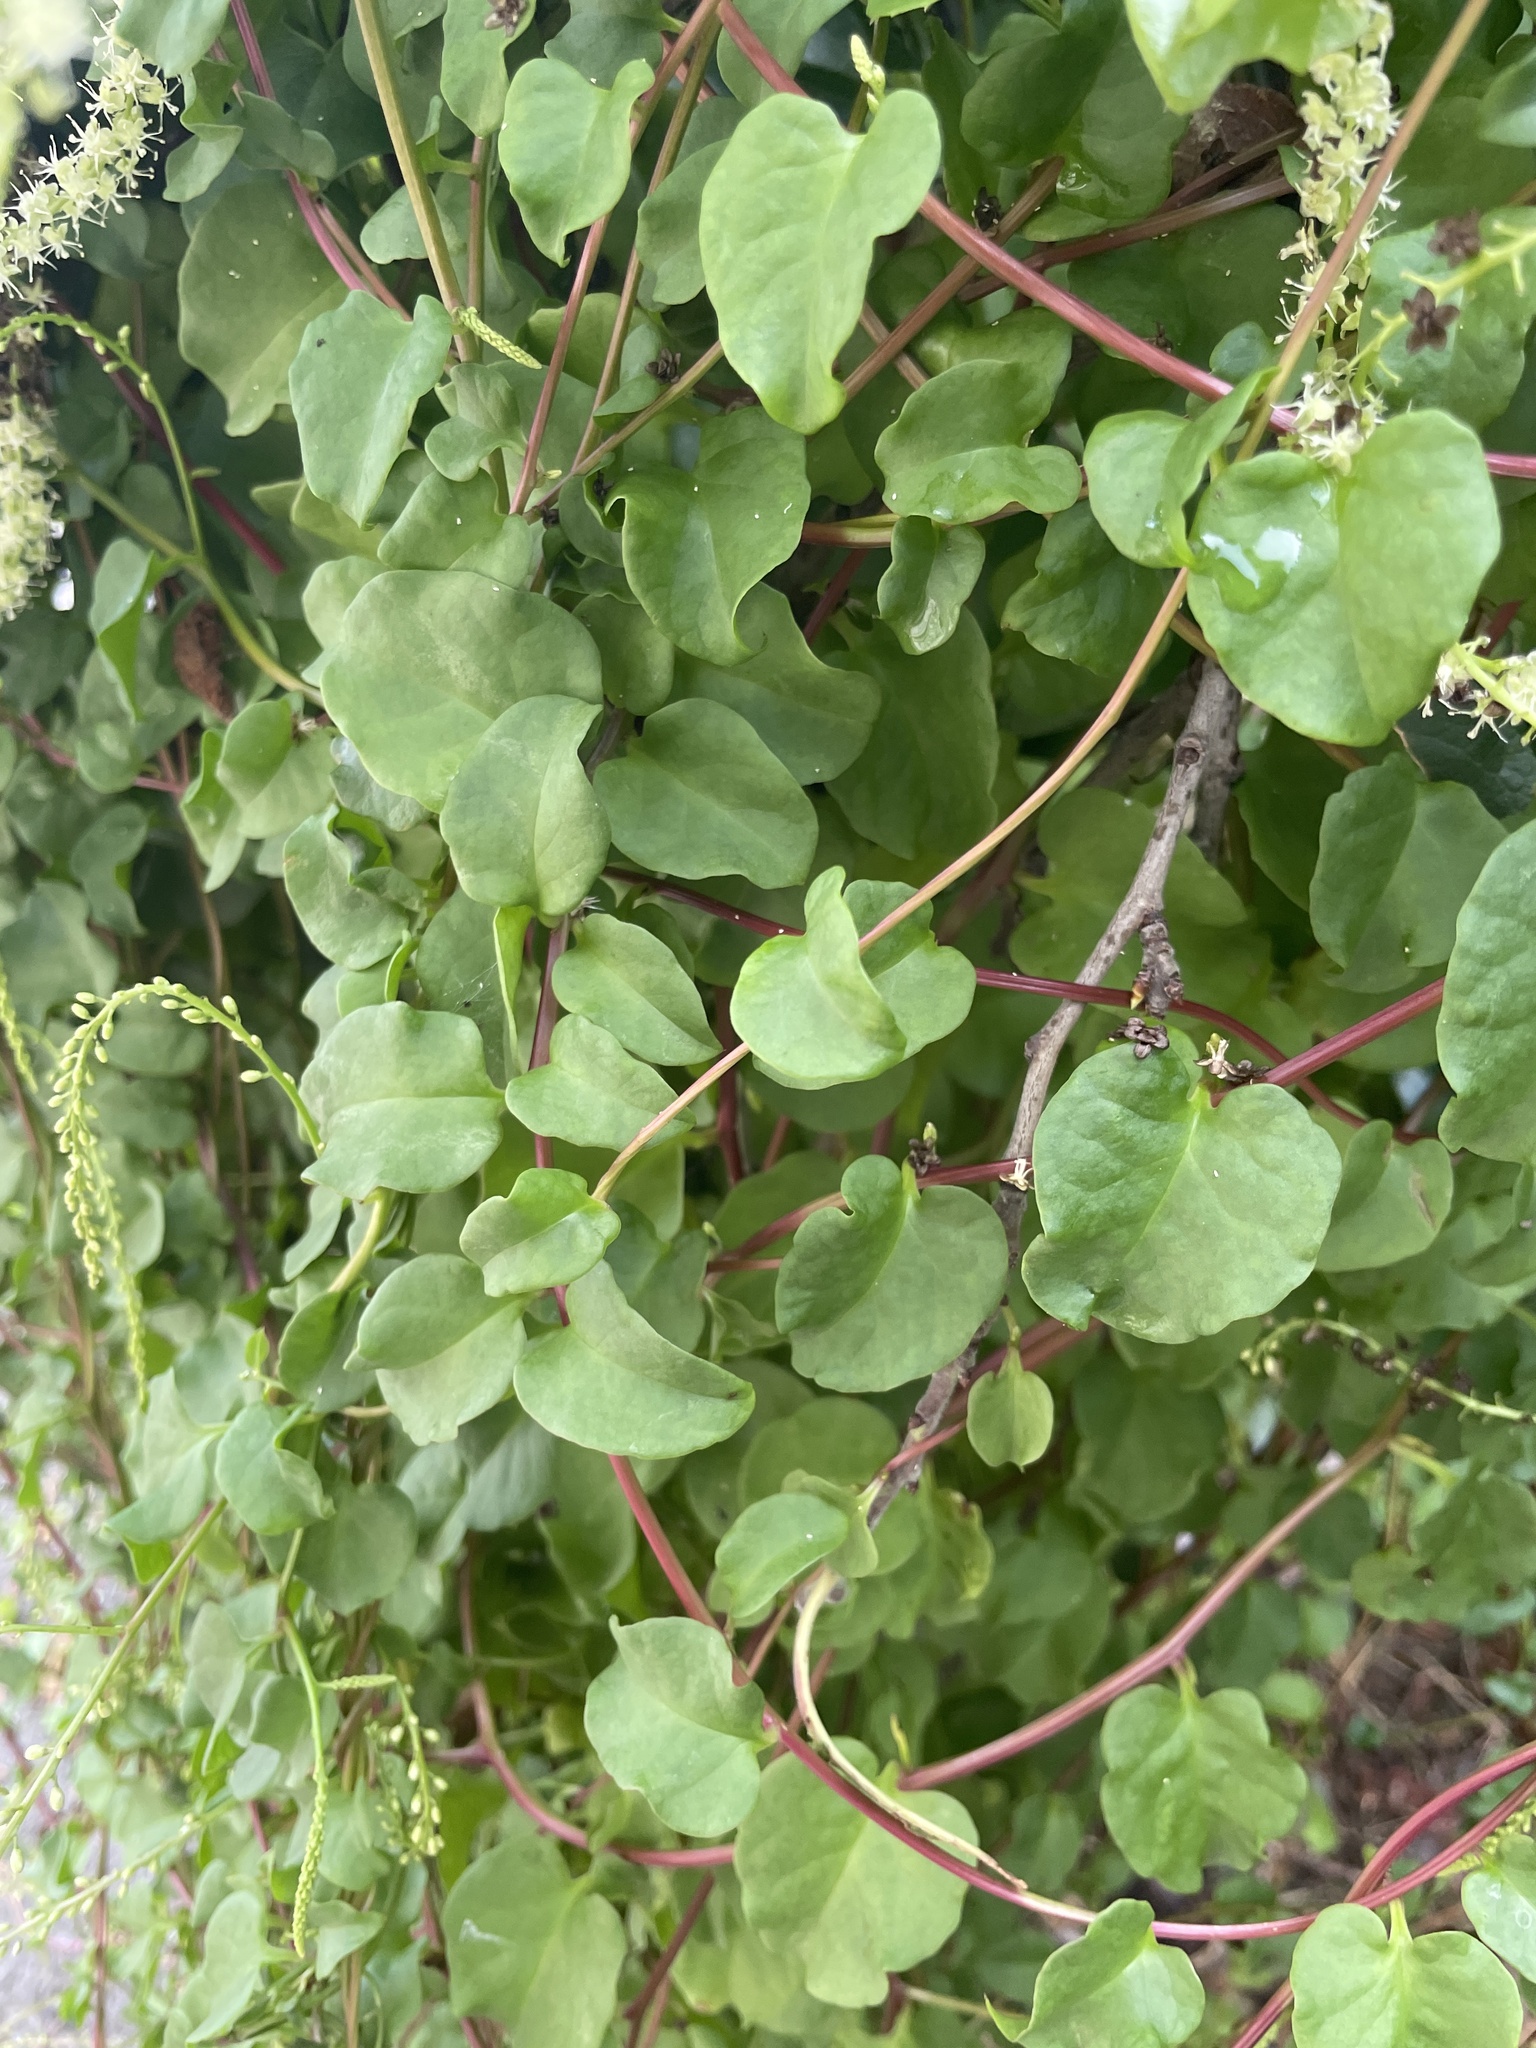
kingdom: Plantae
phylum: Tracheophyta
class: Magnoliopsida
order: Caryophyllales
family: Basellaceae
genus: Anredera
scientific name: Anredera cordifolia
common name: Heartleaf madeiravine
